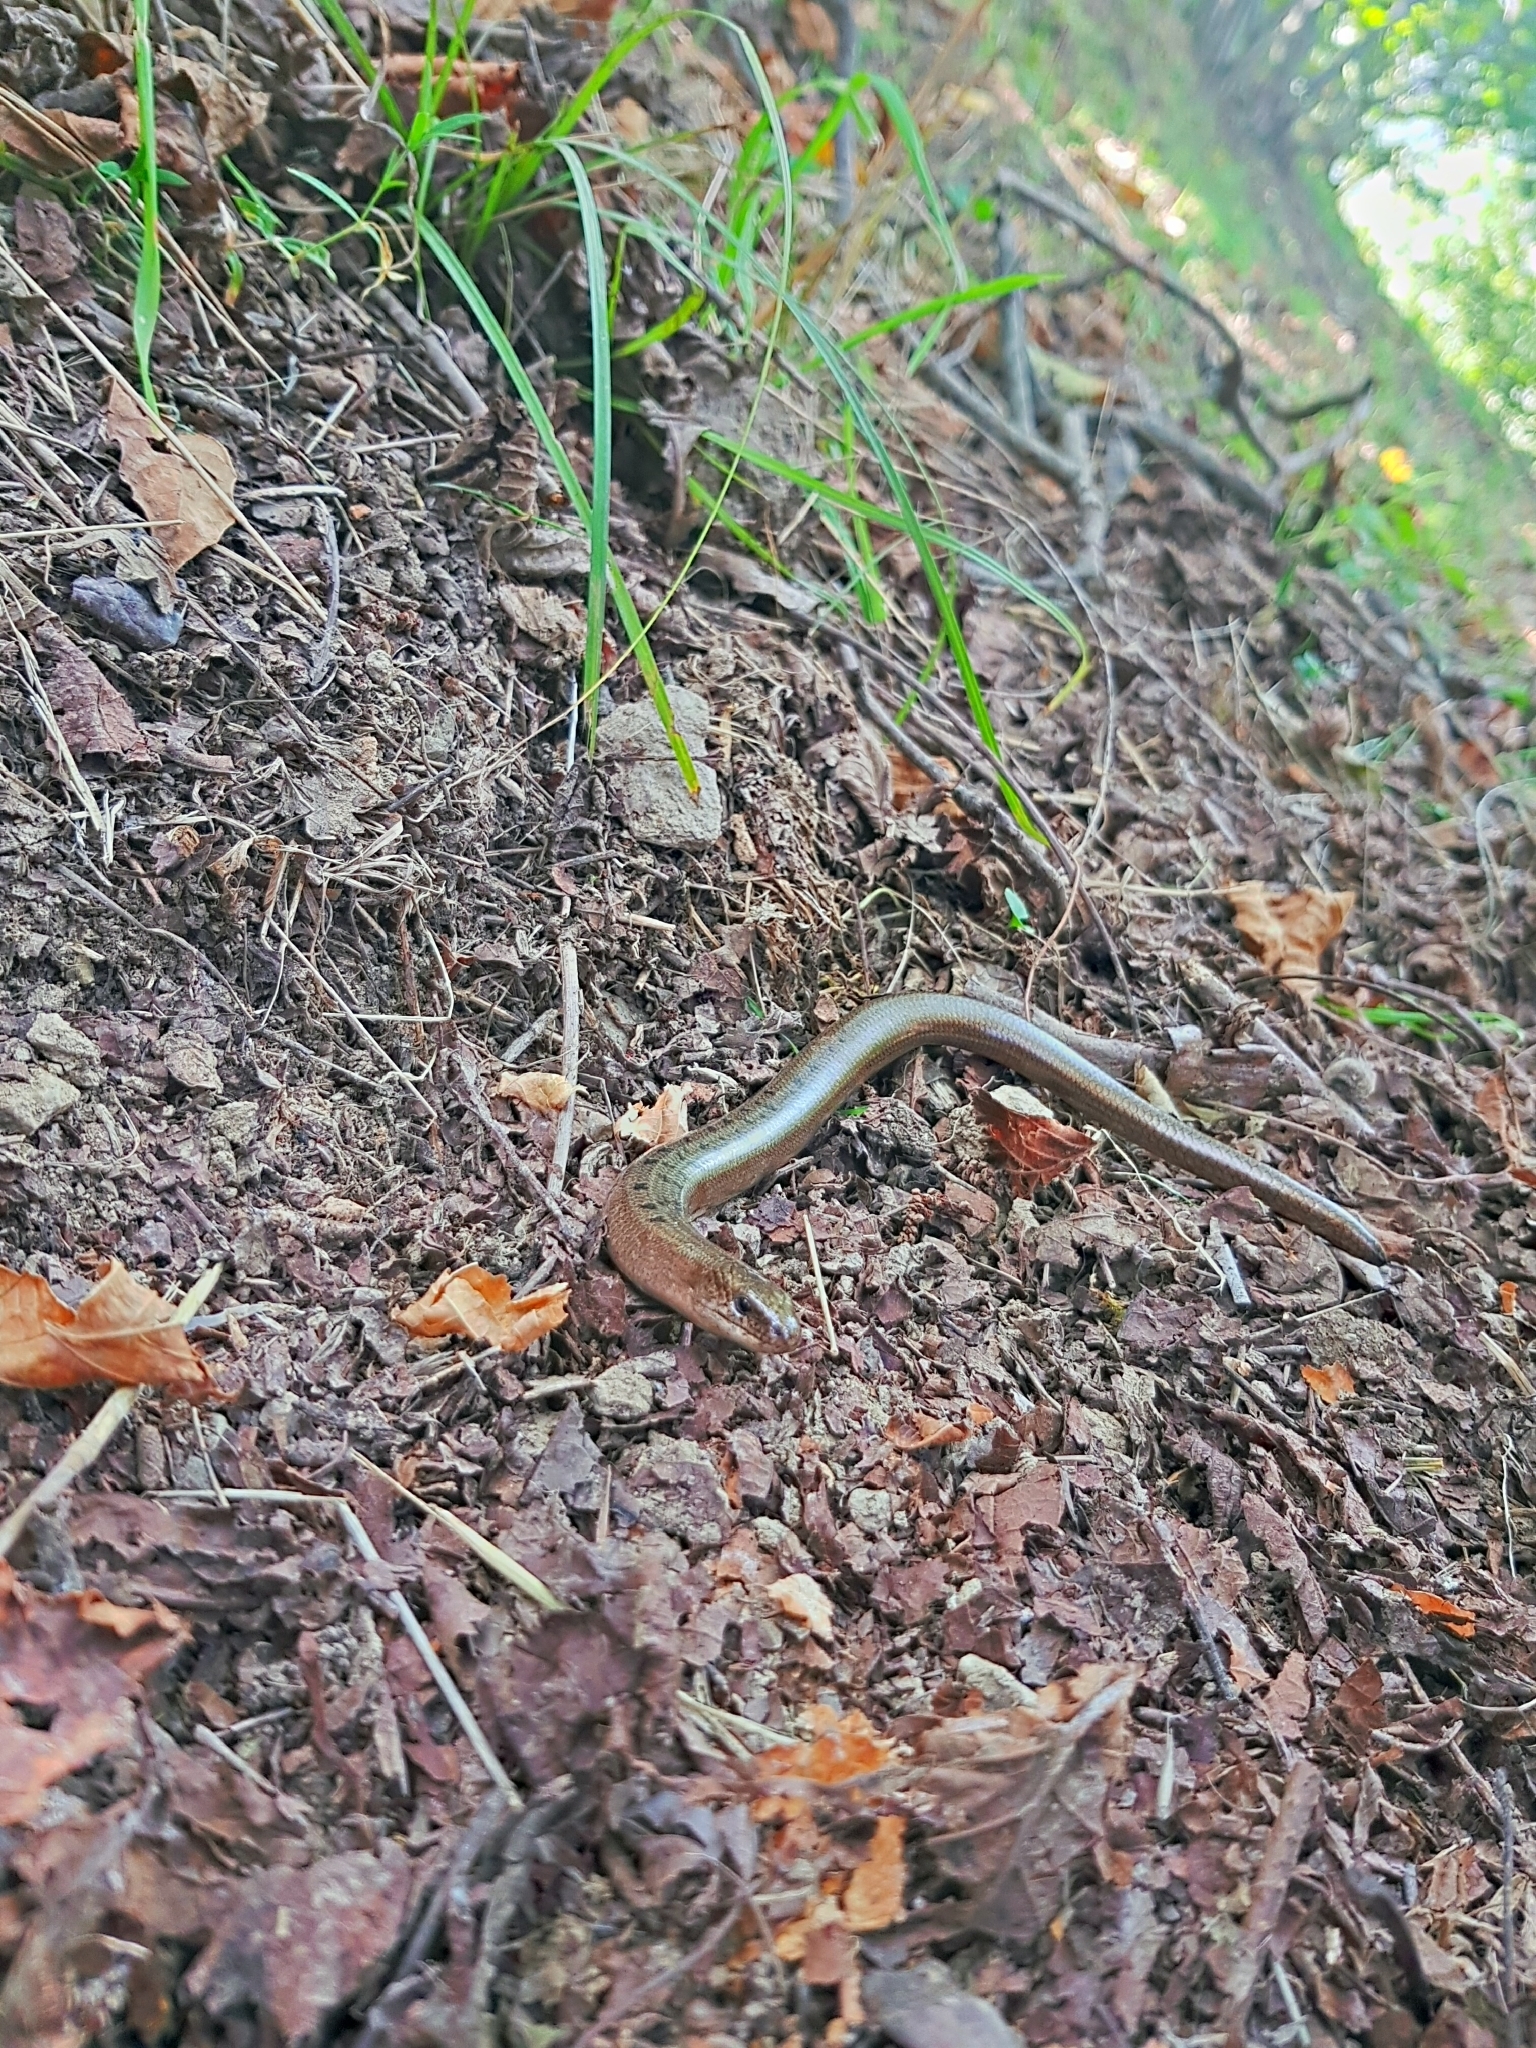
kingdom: Animalia
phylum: Chordata
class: Squamata
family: Anguidae
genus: Anguis
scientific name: Anguis colchica
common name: Slow worm
